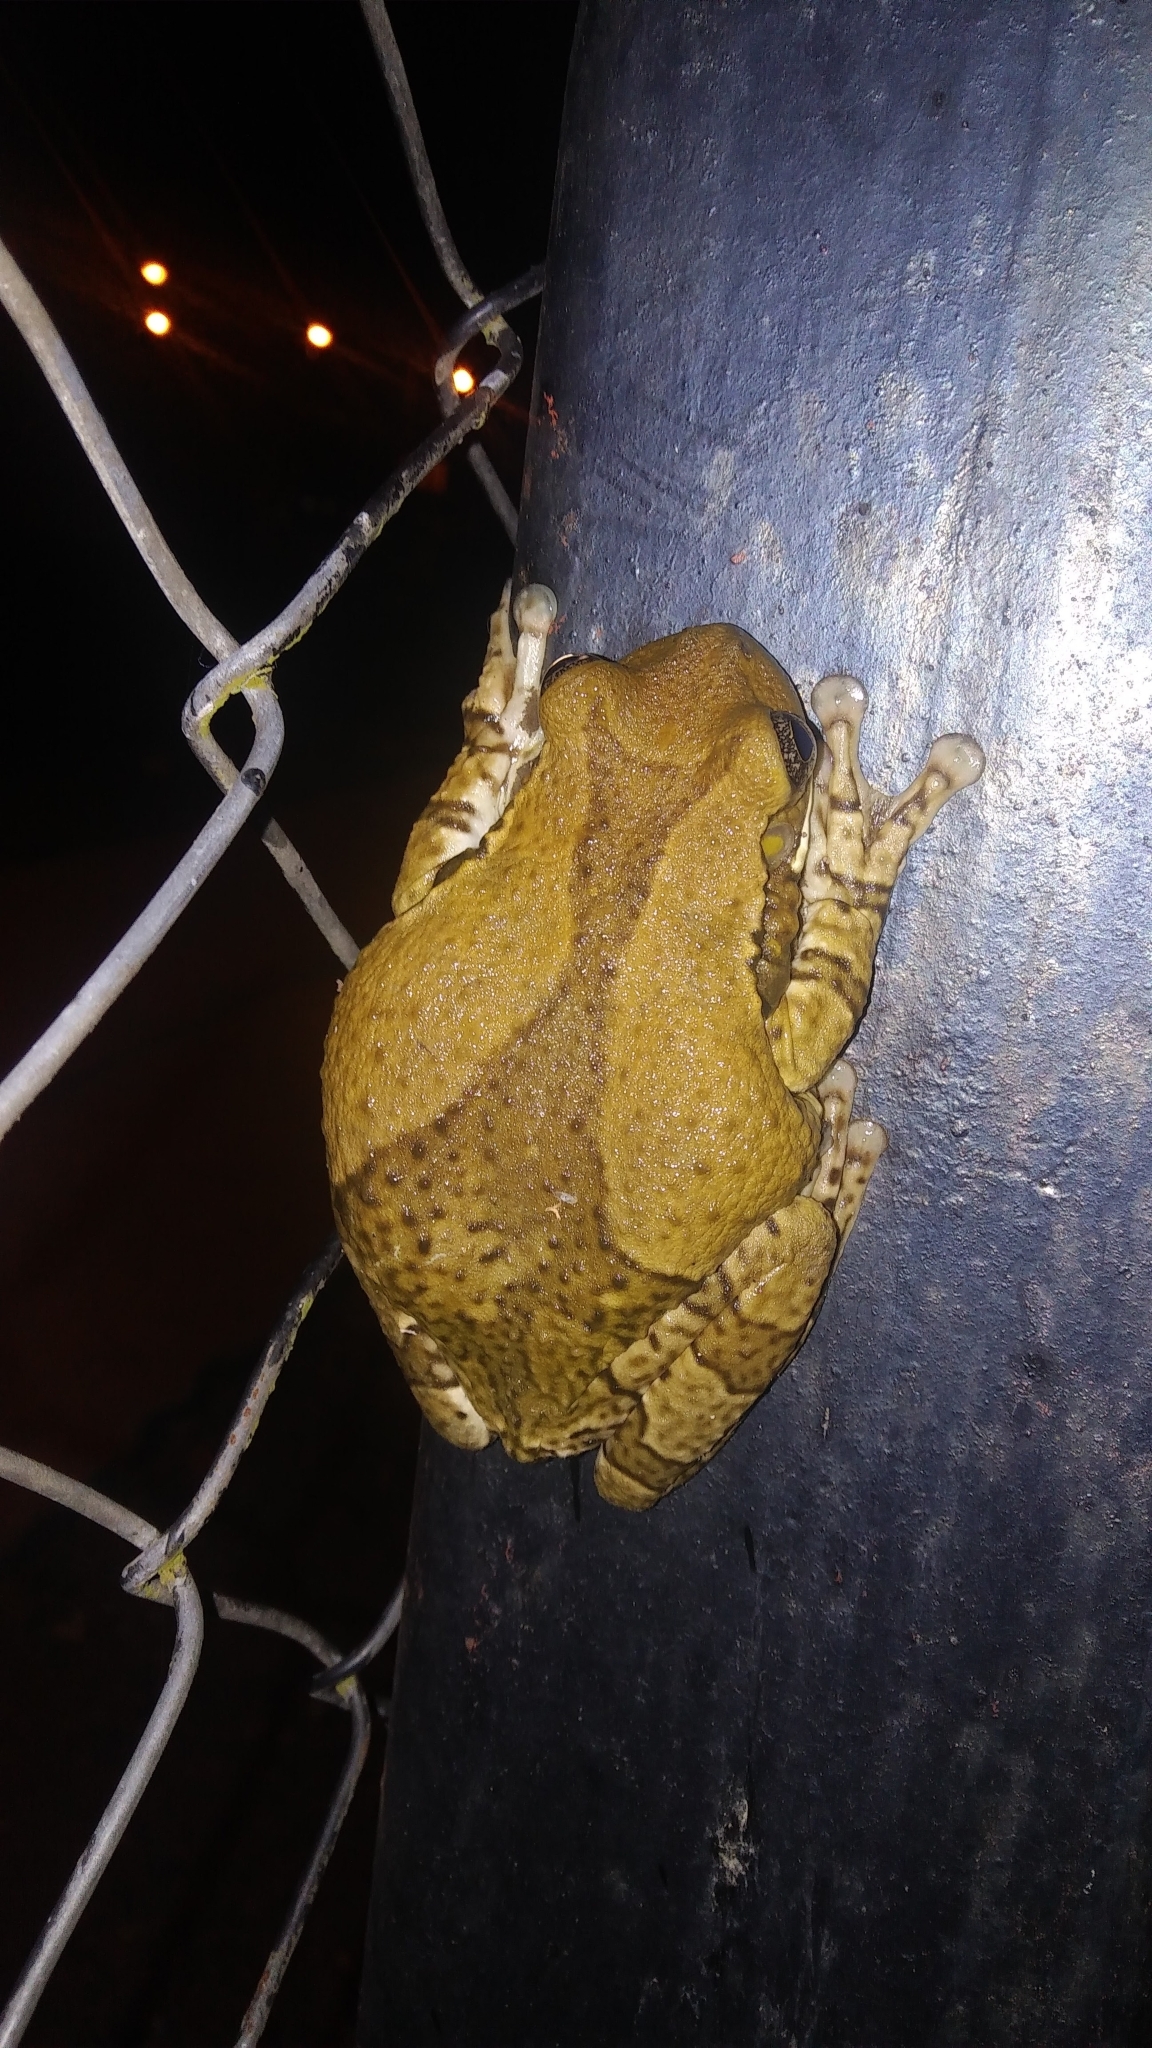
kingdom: Animalia
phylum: Chordata
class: Amphibia
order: Anura
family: Hylidae
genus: Trachycephalus
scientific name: Trachycephalus vermiculatus
